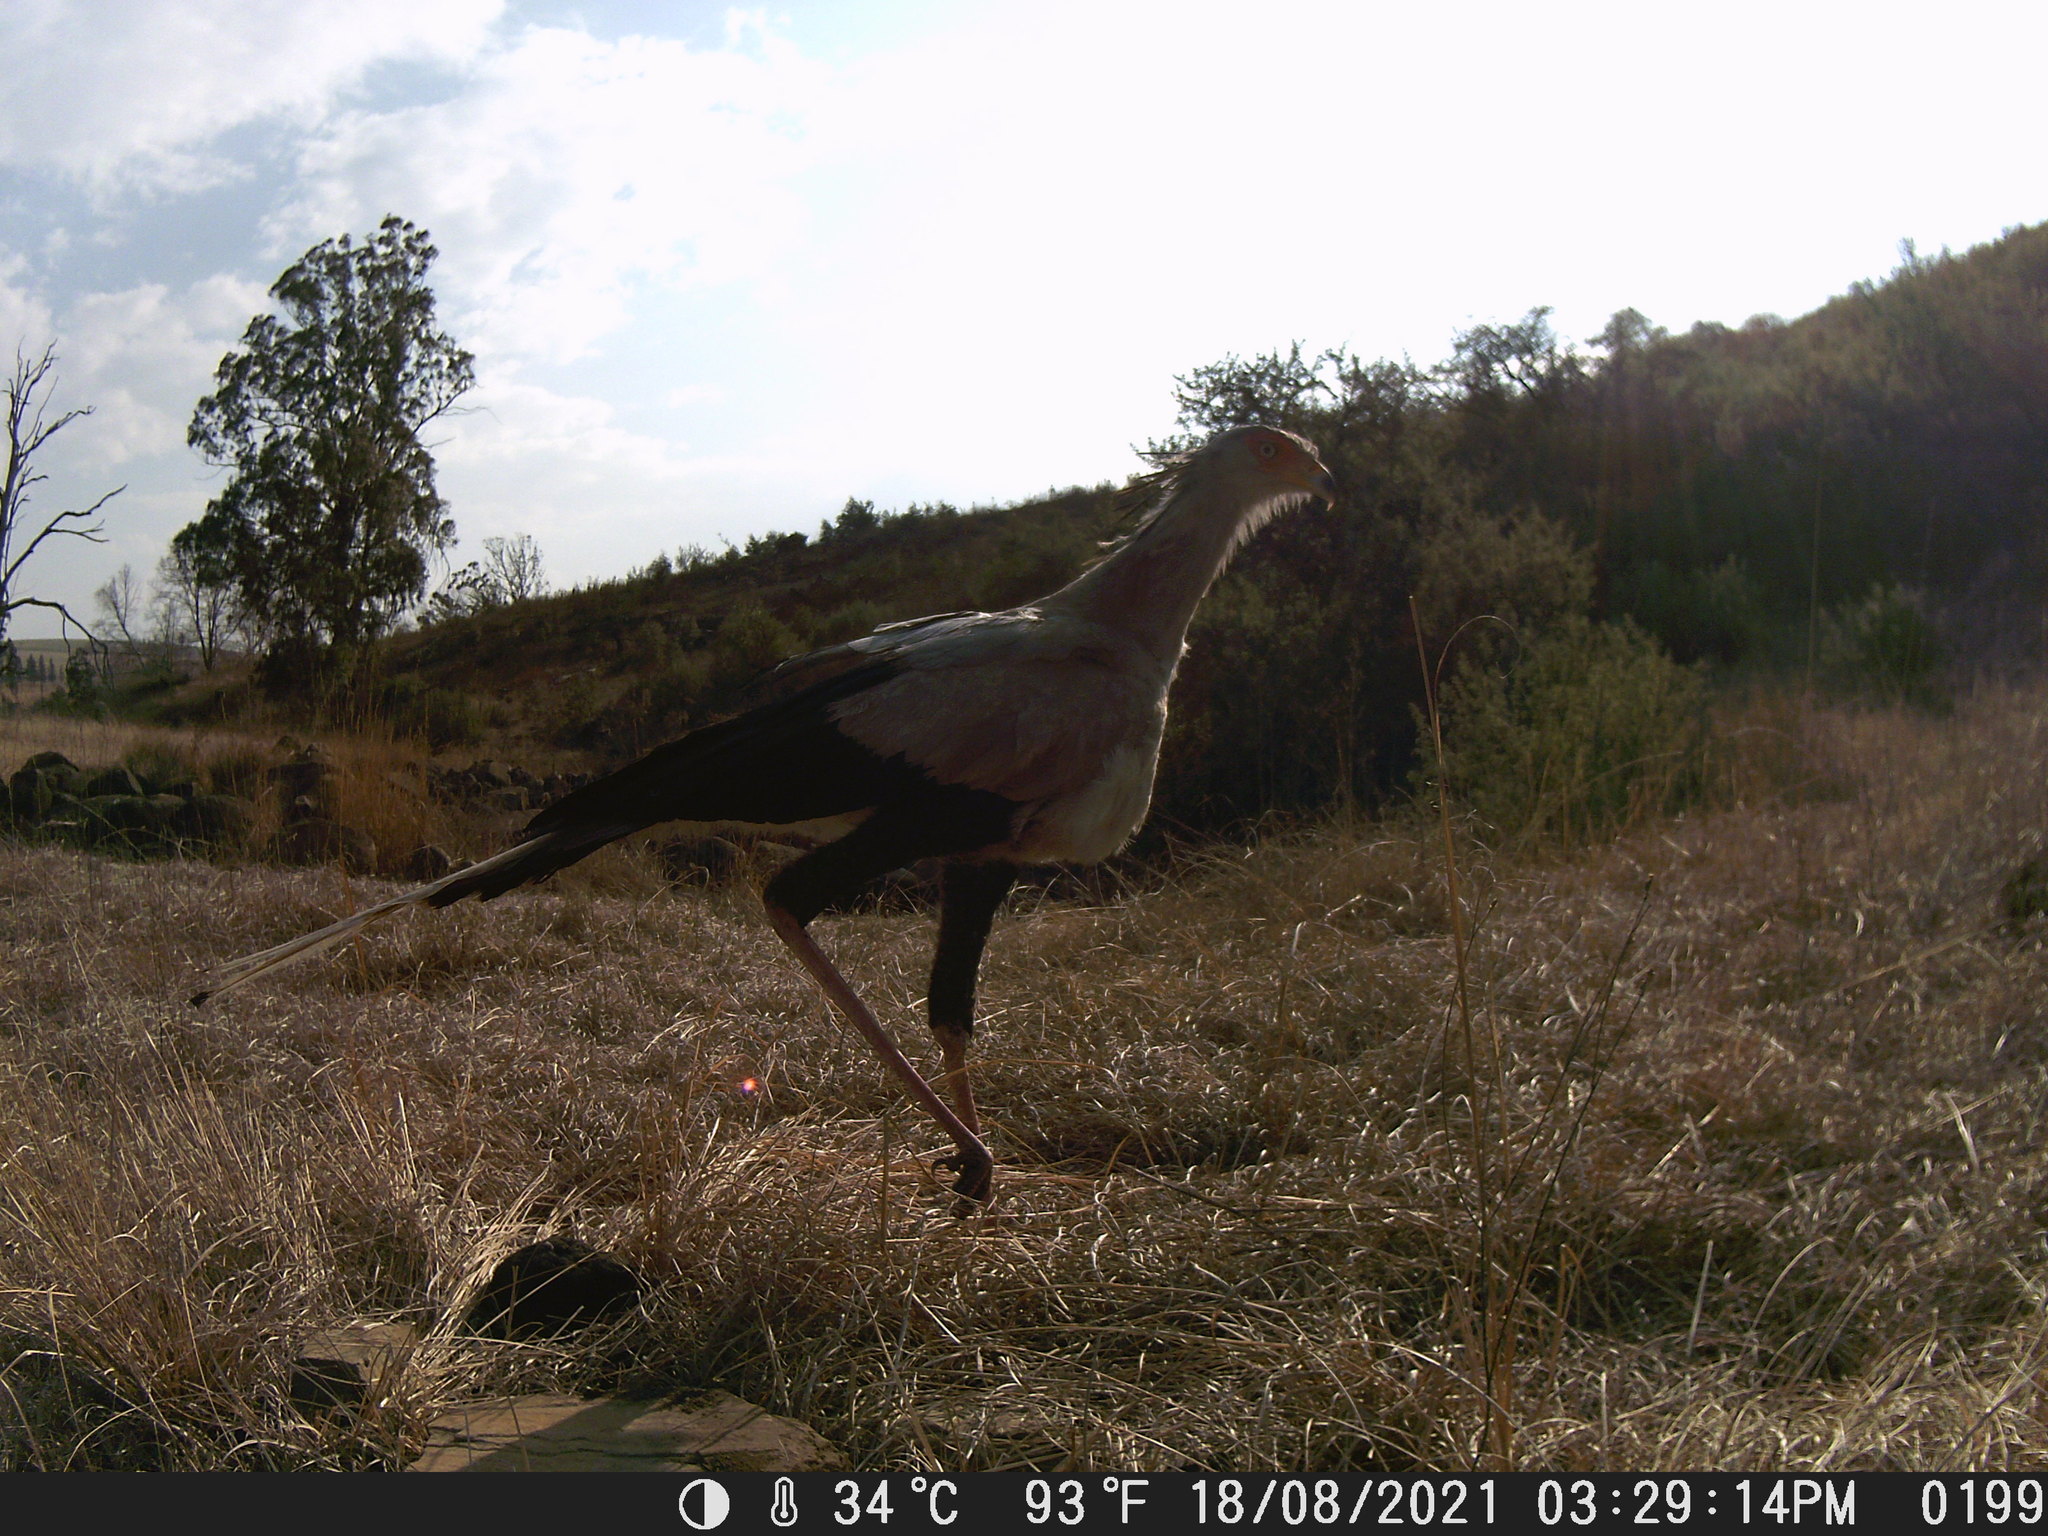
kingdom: Animalia
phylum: Chordata
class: Aves
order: Accipitriformes
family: Sagittariidae
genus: Sagittarius
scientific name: Sagittarius serpentarius
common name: Secretarybird
